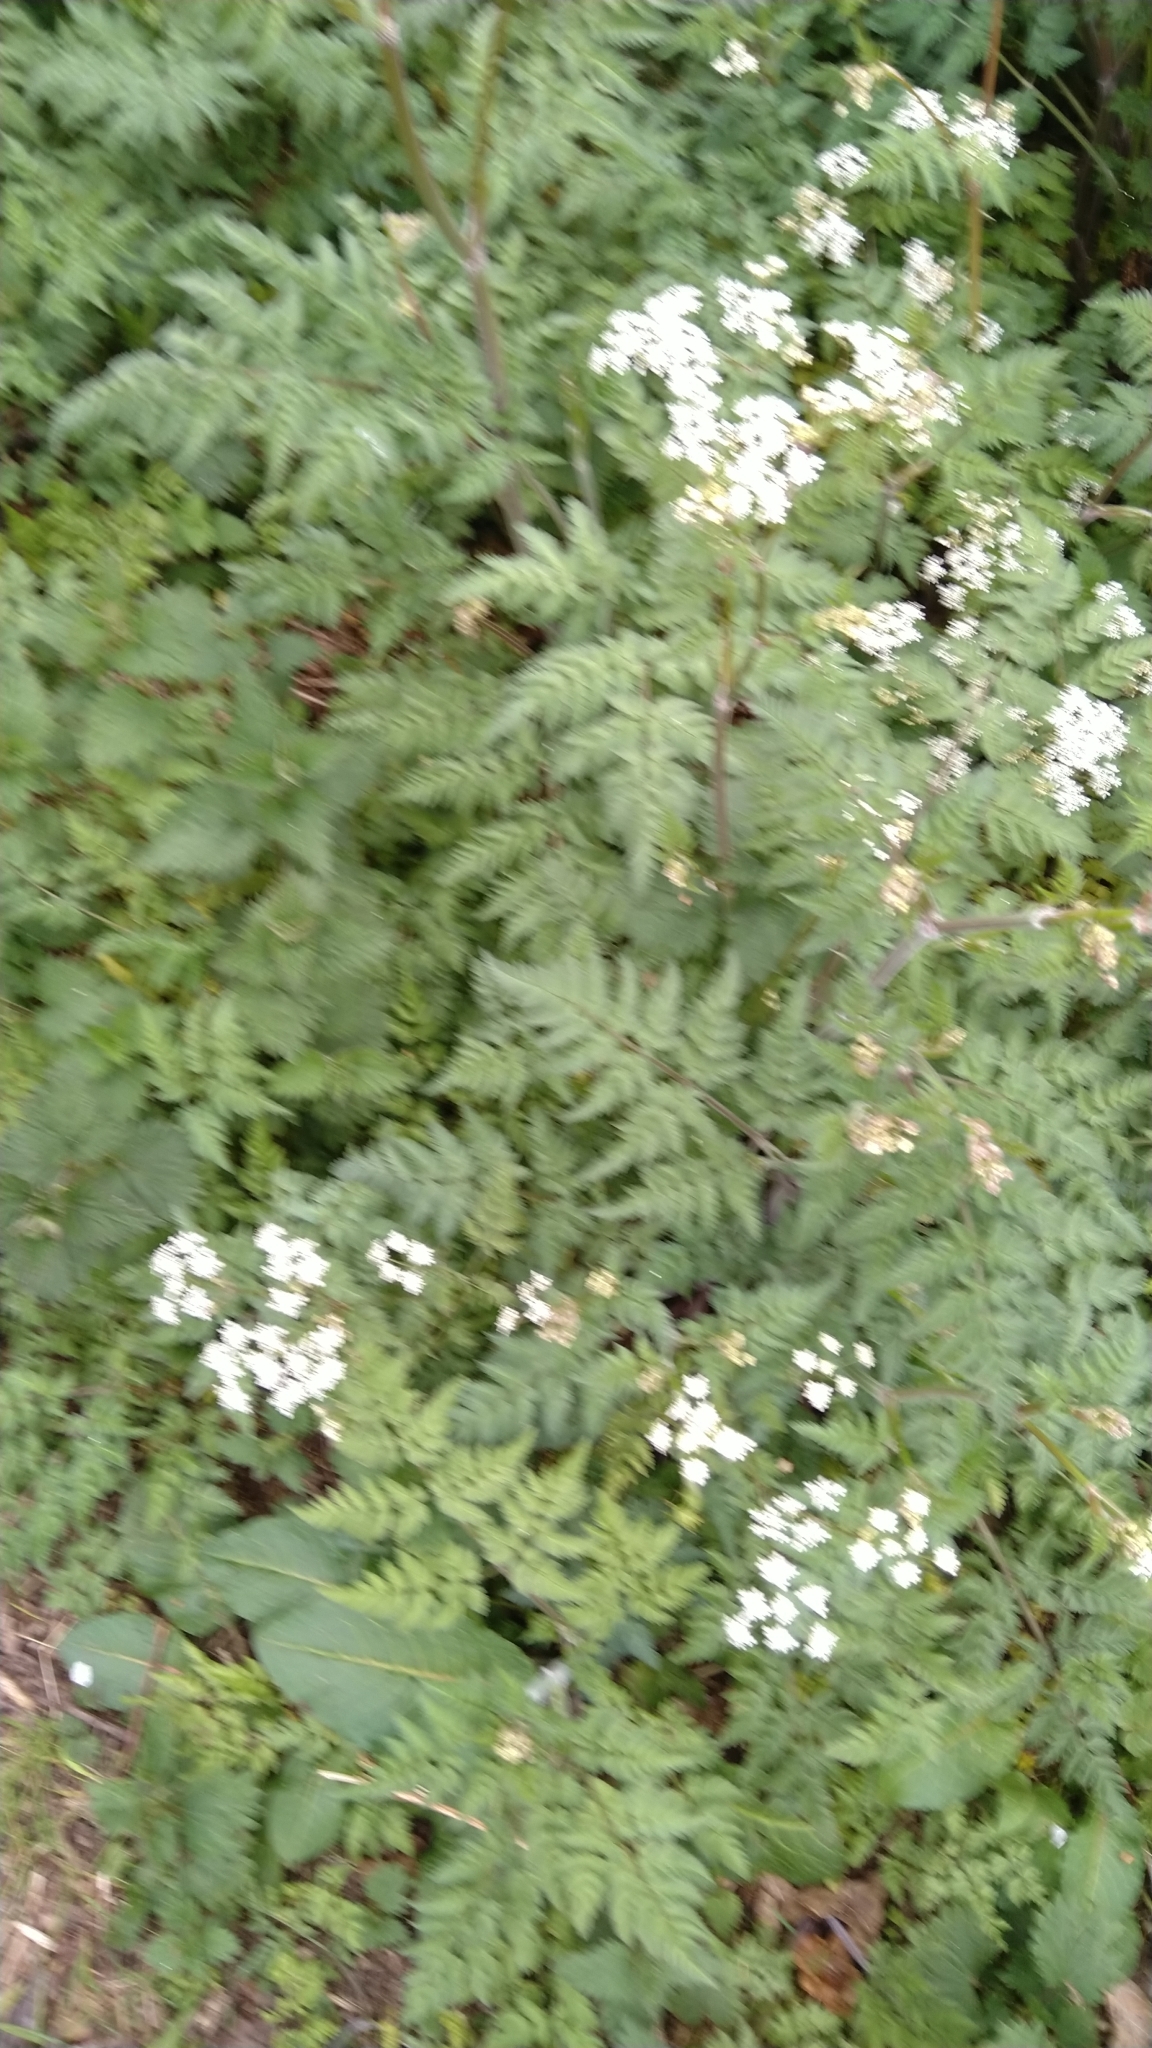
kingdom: Plantae
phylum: Tracheophyta
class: Magnoliopsida
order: Apiales
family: Apiaceae
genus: Anthriscus
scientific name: Anthriscus sylvestris
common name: Cow parsley
